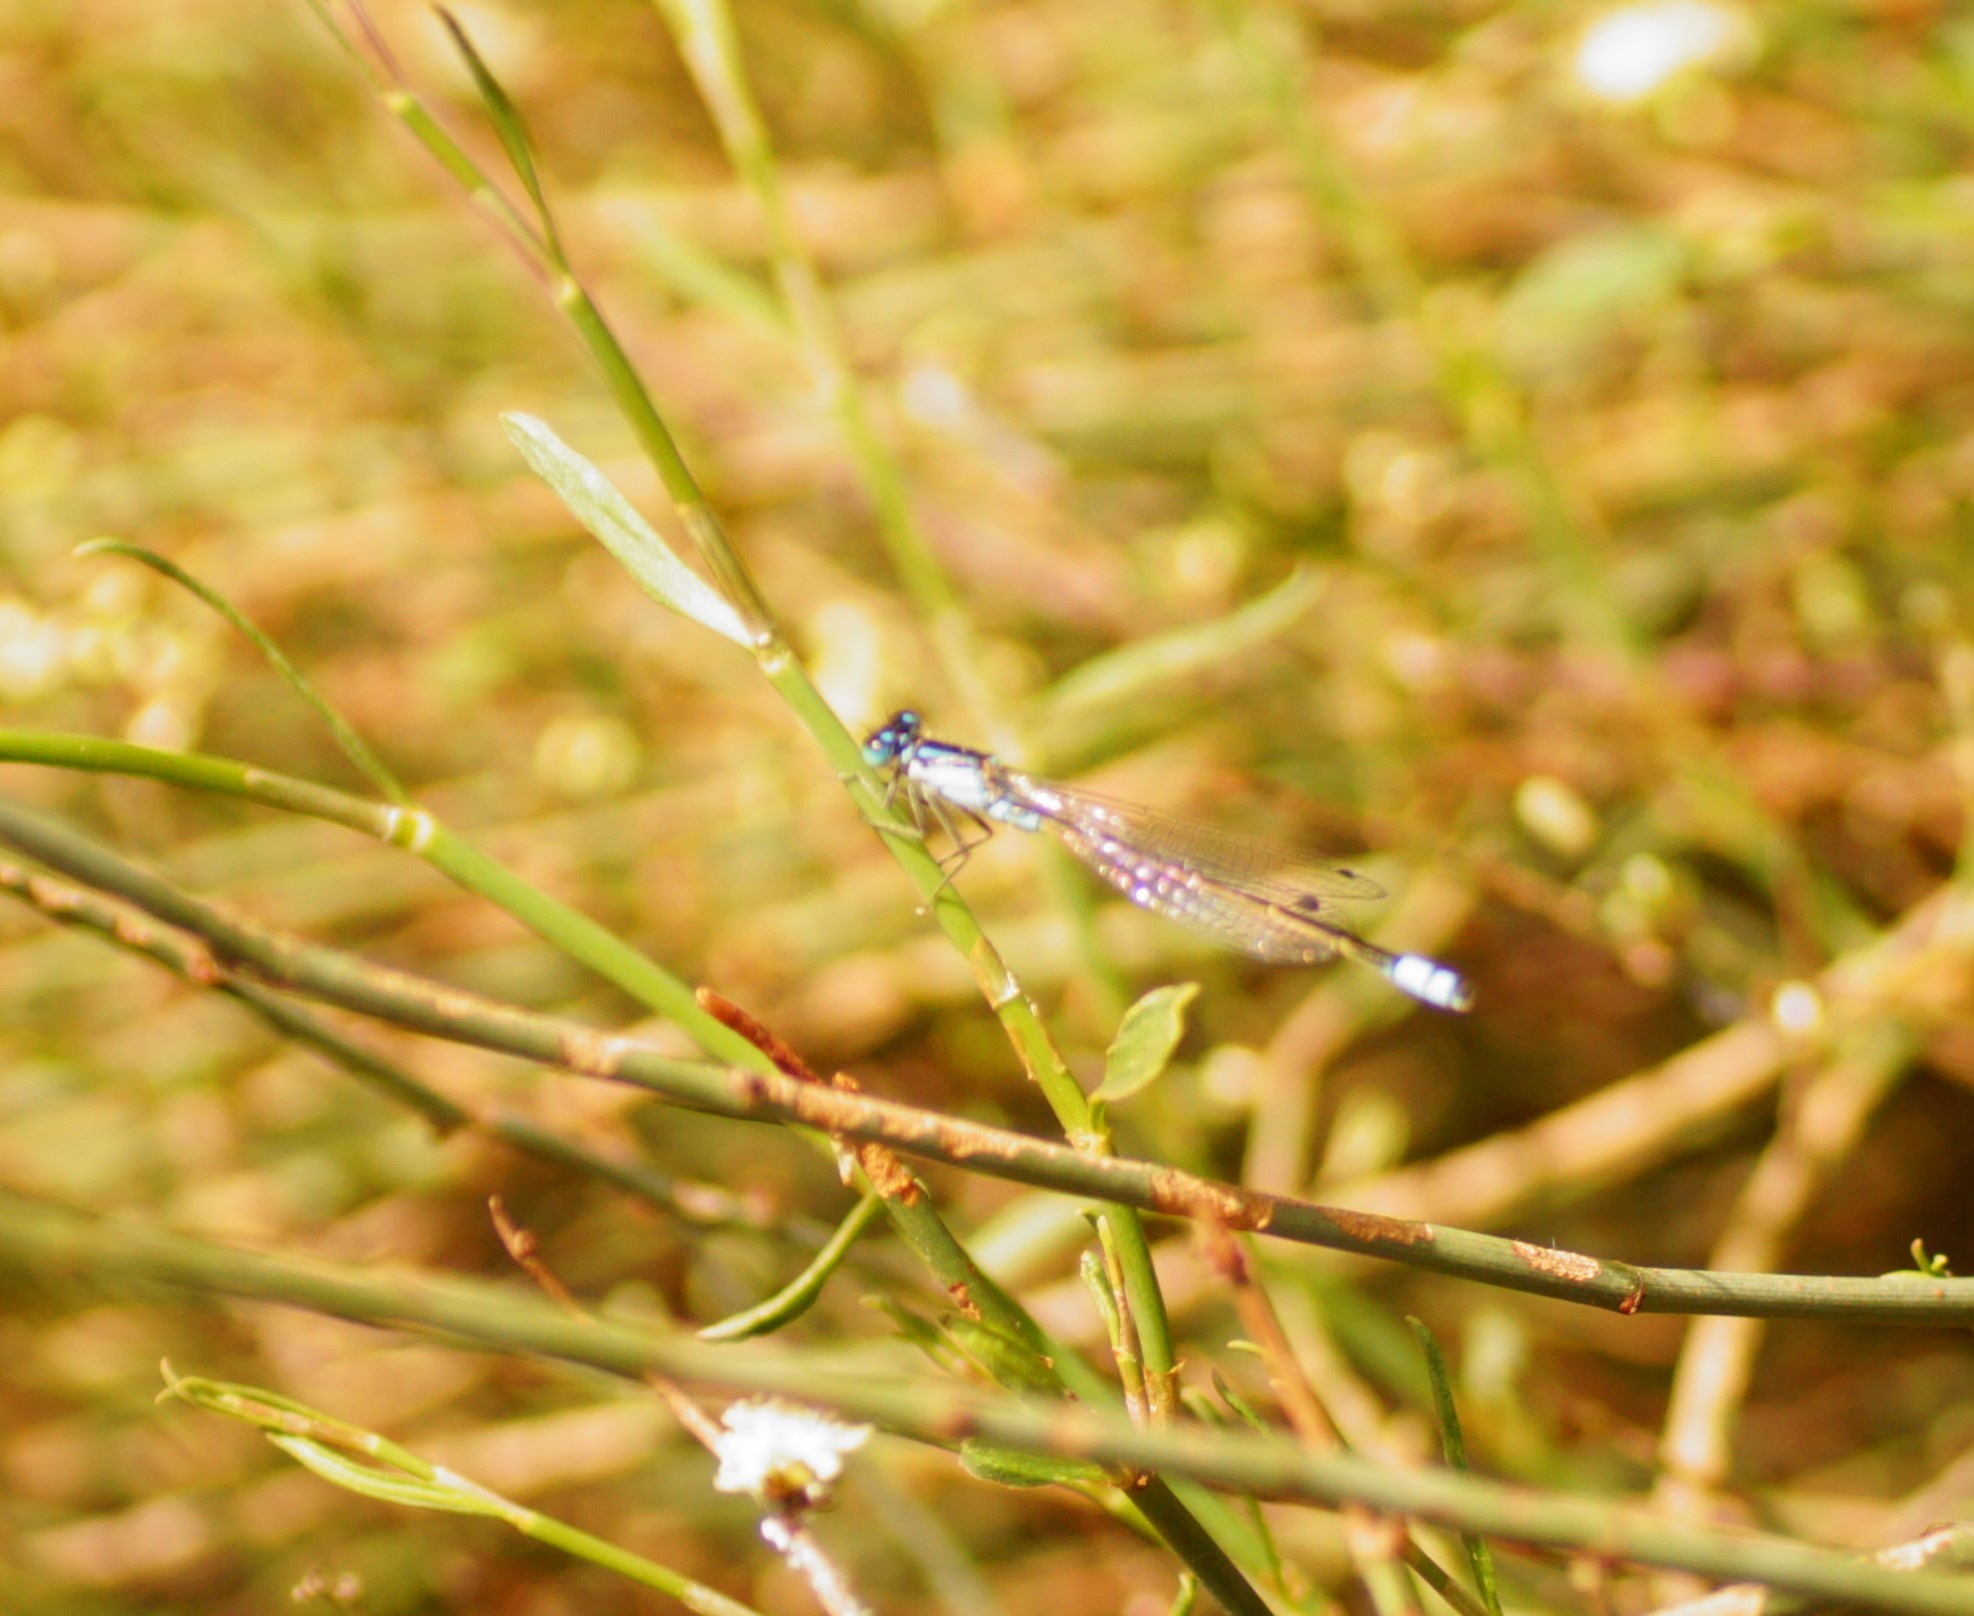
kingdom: Animalia
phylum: Arthropoda
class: Insecta
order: Odonata
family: Coenagrionidae
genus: Ischnura
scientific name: Ischnura heterosticta
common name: Common bluetail
